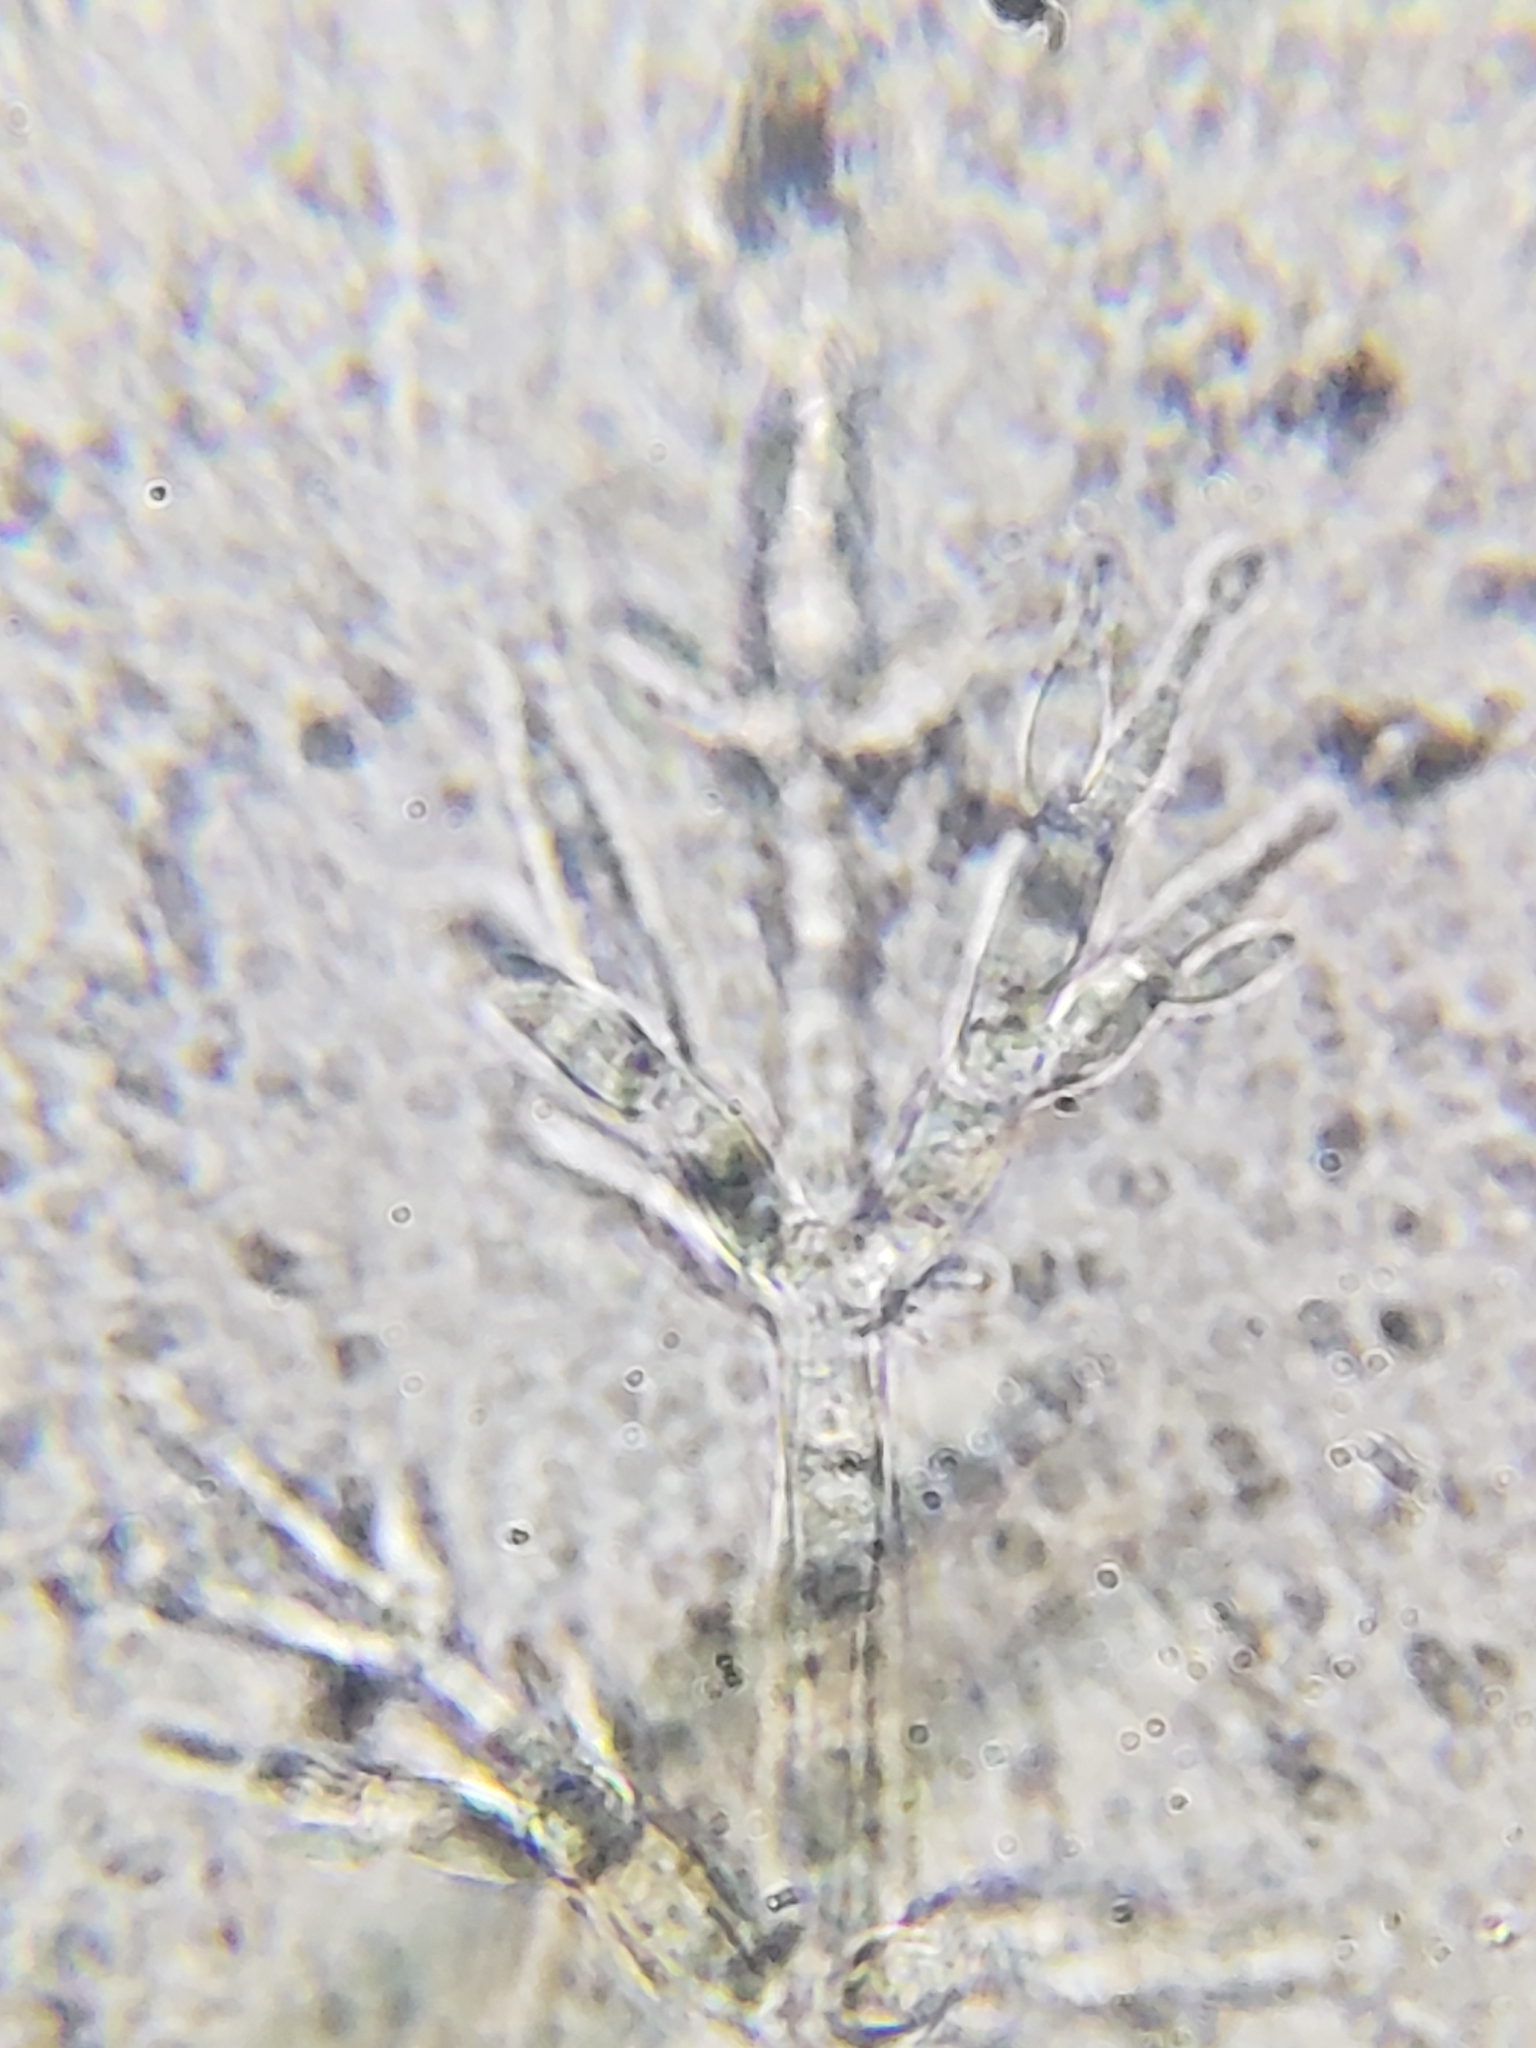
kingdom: Fungi
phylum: Ascomycota
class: Sordariomycetes
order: Hypocreales
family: Nectriaceae
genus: Mariannaea
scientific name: Mariannaea elegans
